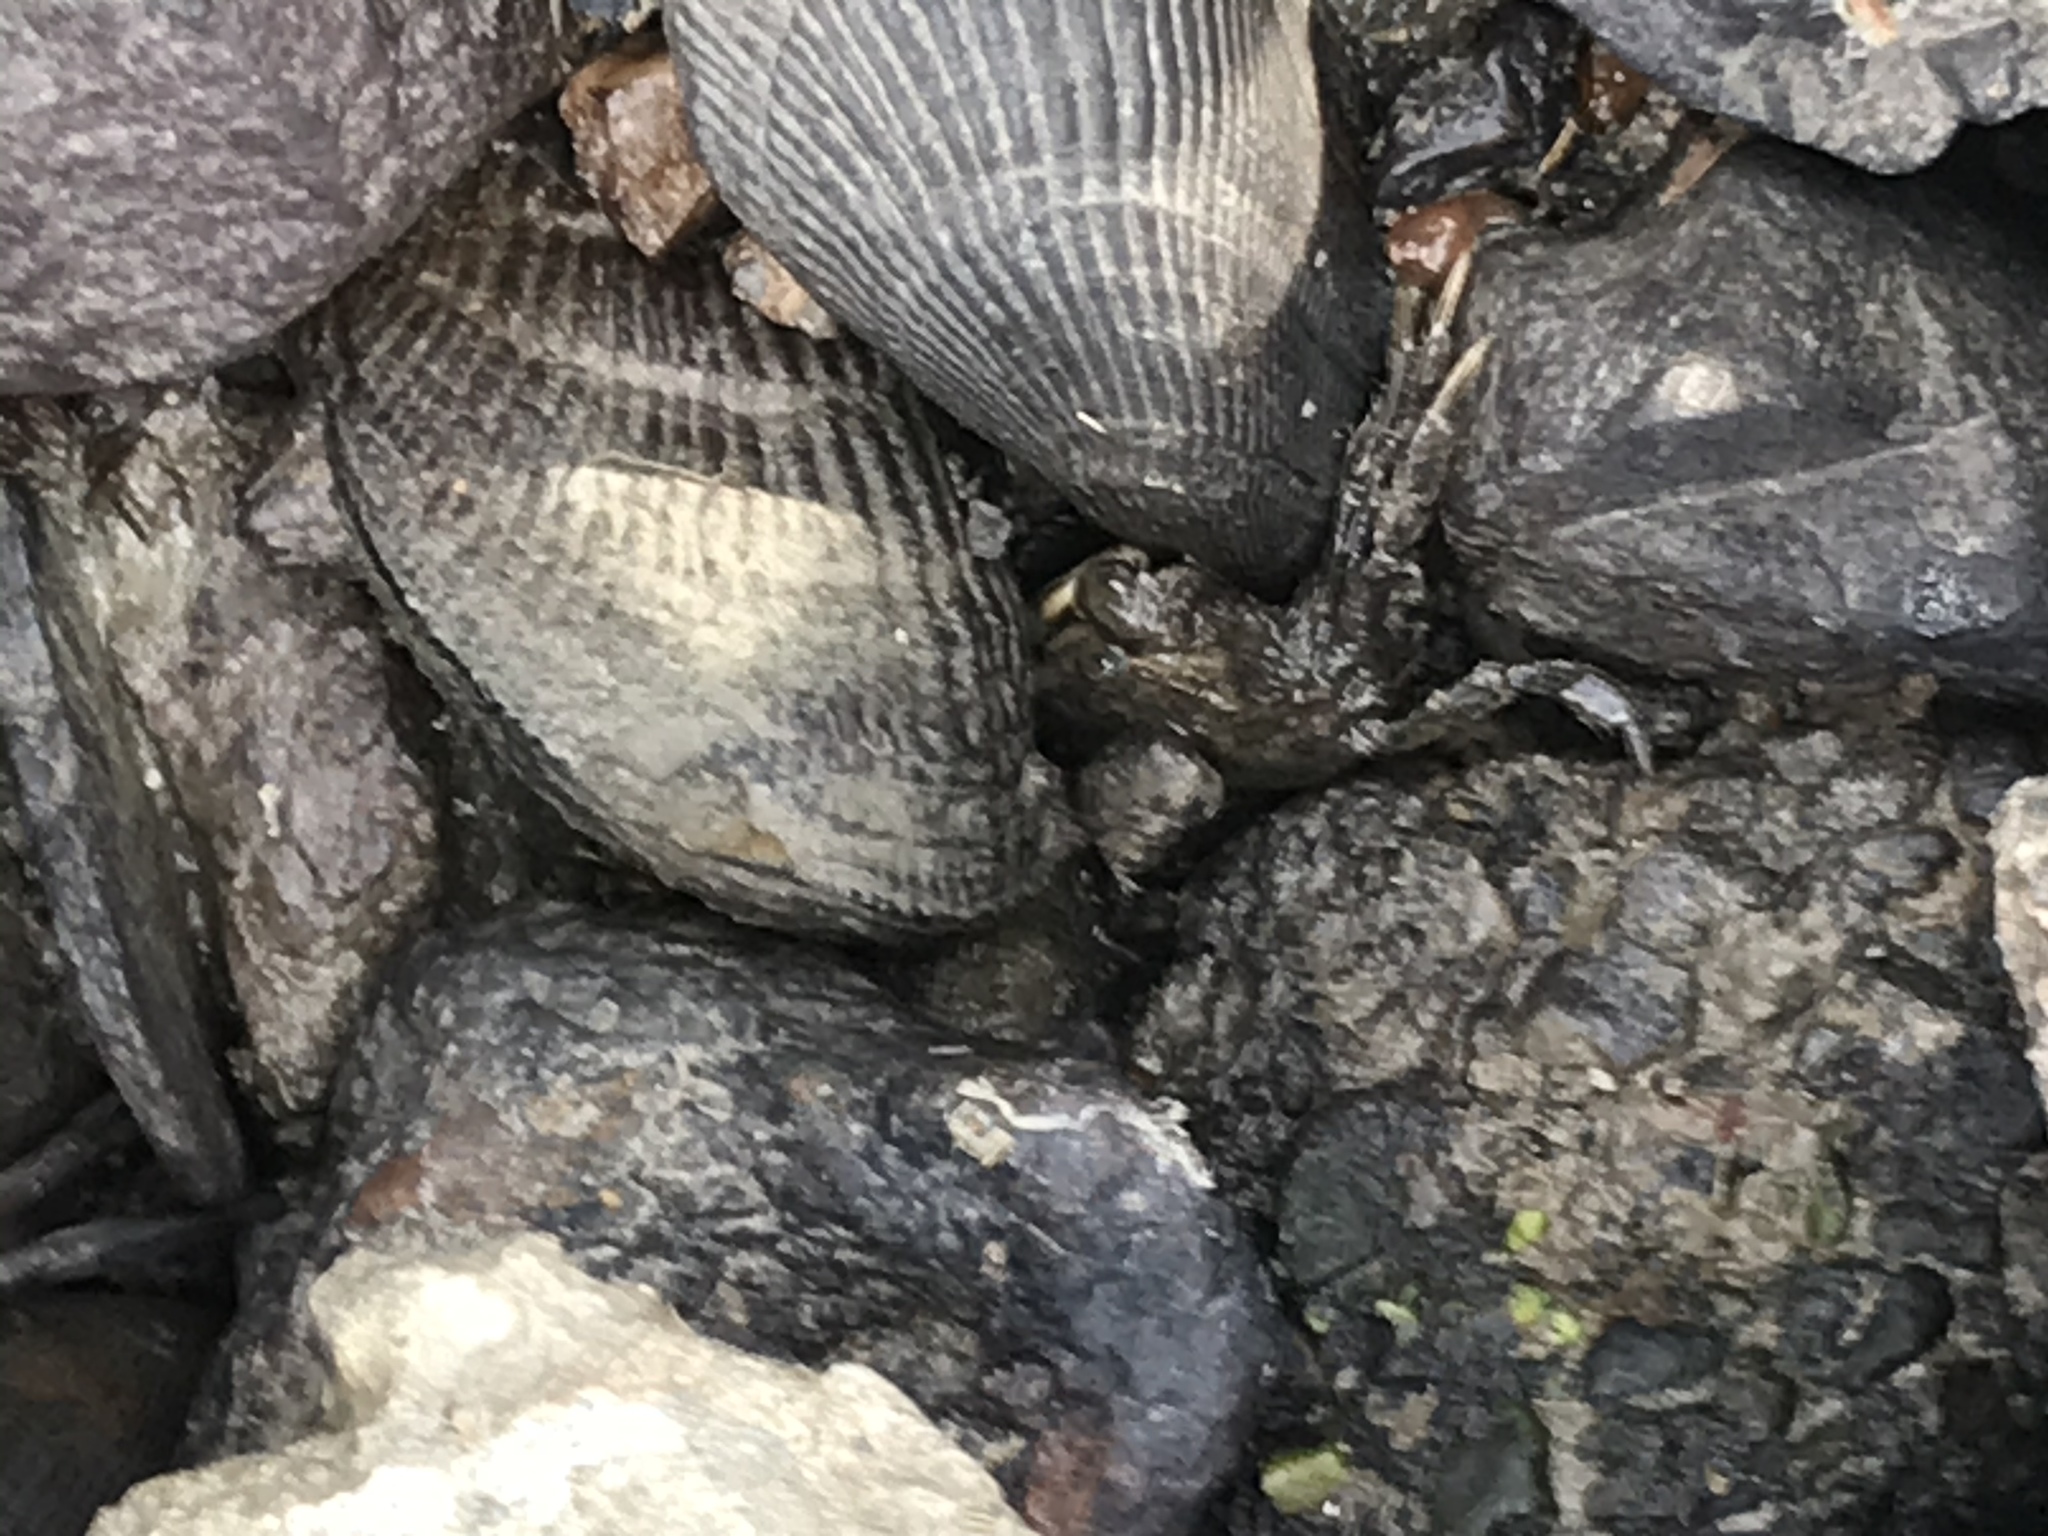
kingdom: Animalia
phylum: Mollusca
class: Bivalvia
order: Mytilida
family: Mytilidae
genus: Geukensia
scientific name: Geukensia demissa
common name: Ribbed mussel
